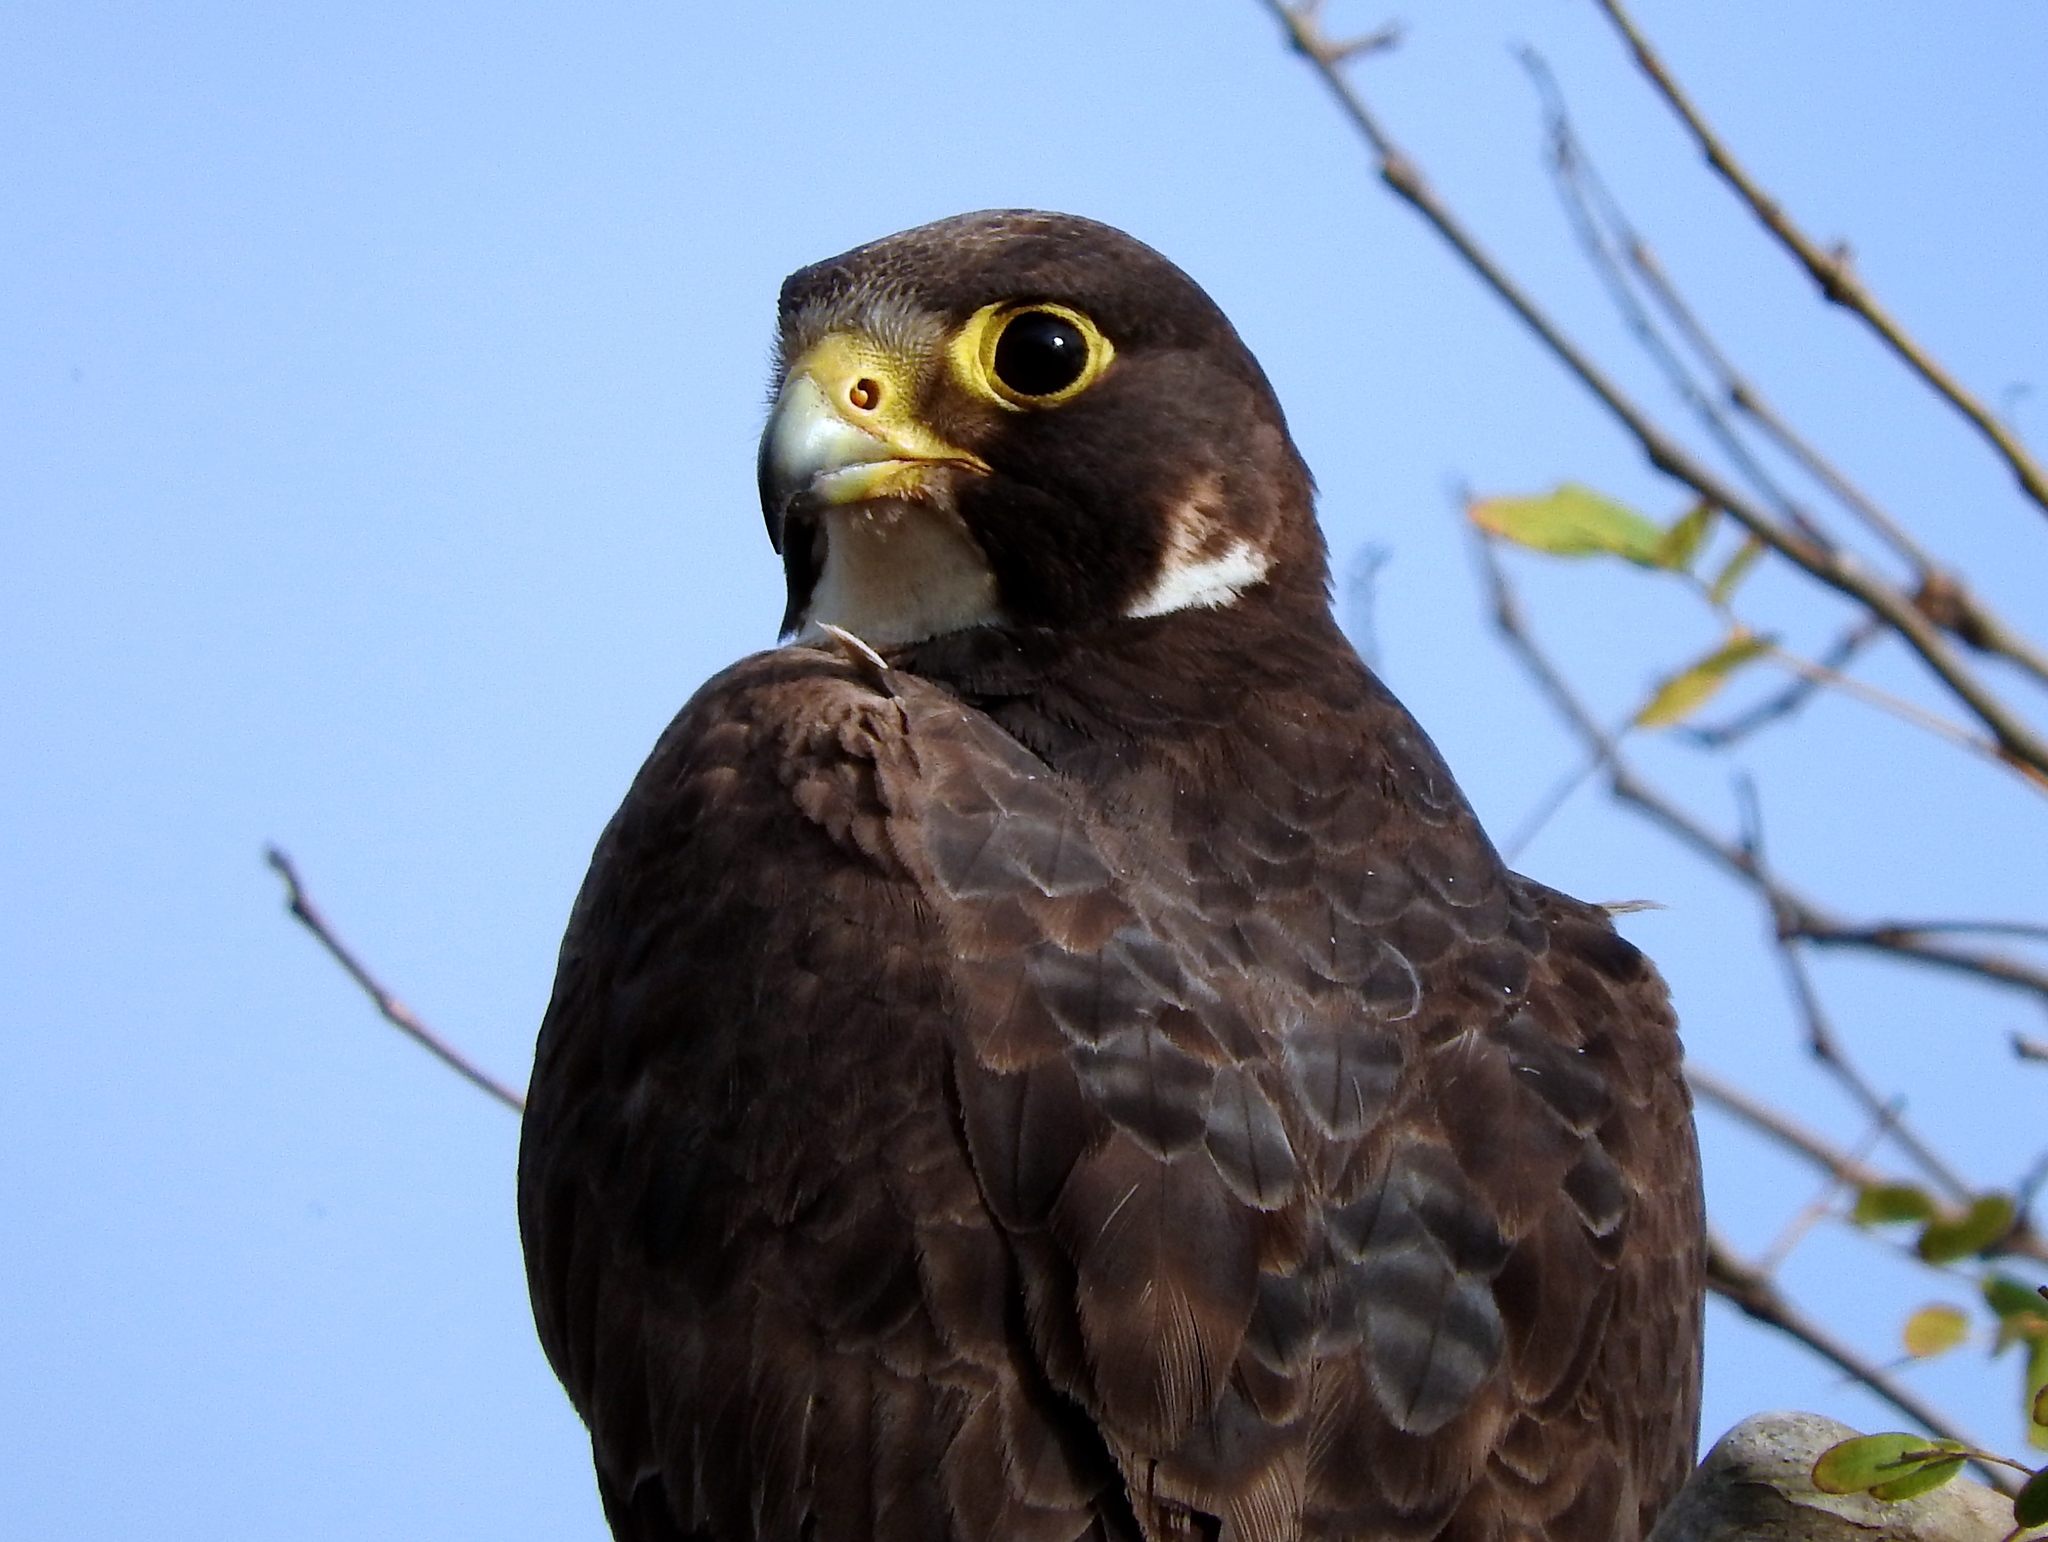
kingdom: Animalia
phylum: Chordata
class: Aves
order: Falconiformes
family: Falconidae
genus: Falco
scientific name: Falco peregrinus
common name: Peregrine falcon
